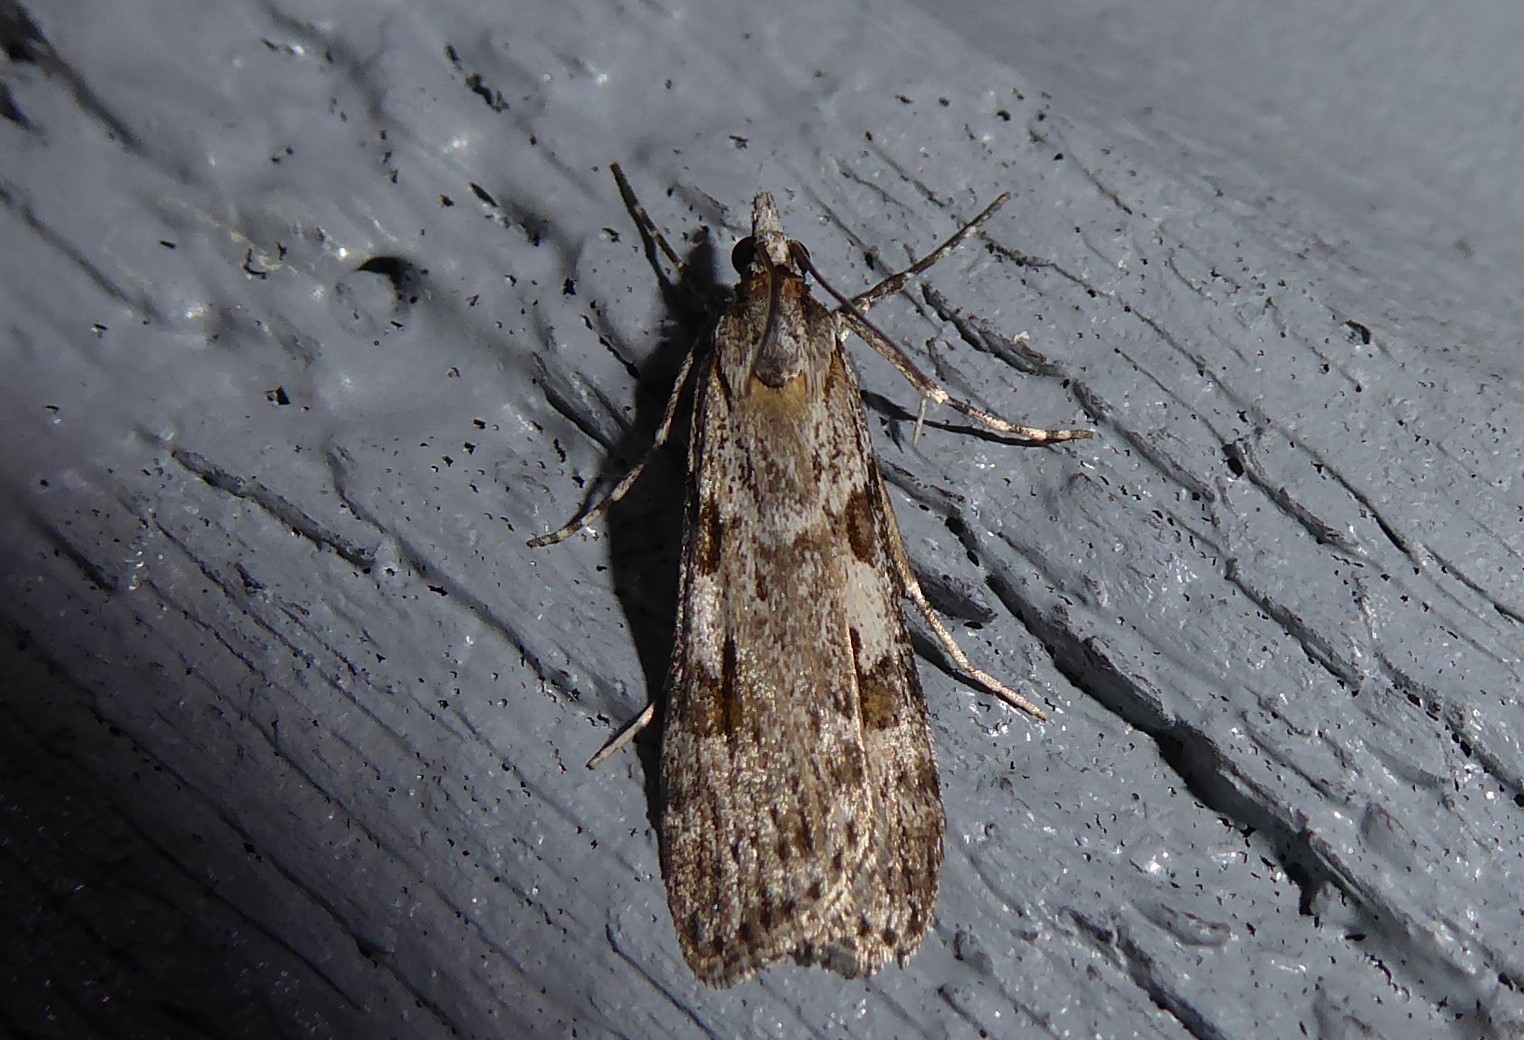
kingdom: Animalia
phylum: Arthropoda
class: Insecta
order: Lepidoptera
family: Crambidae
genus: Scoparia
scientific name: Scoparia halopis
